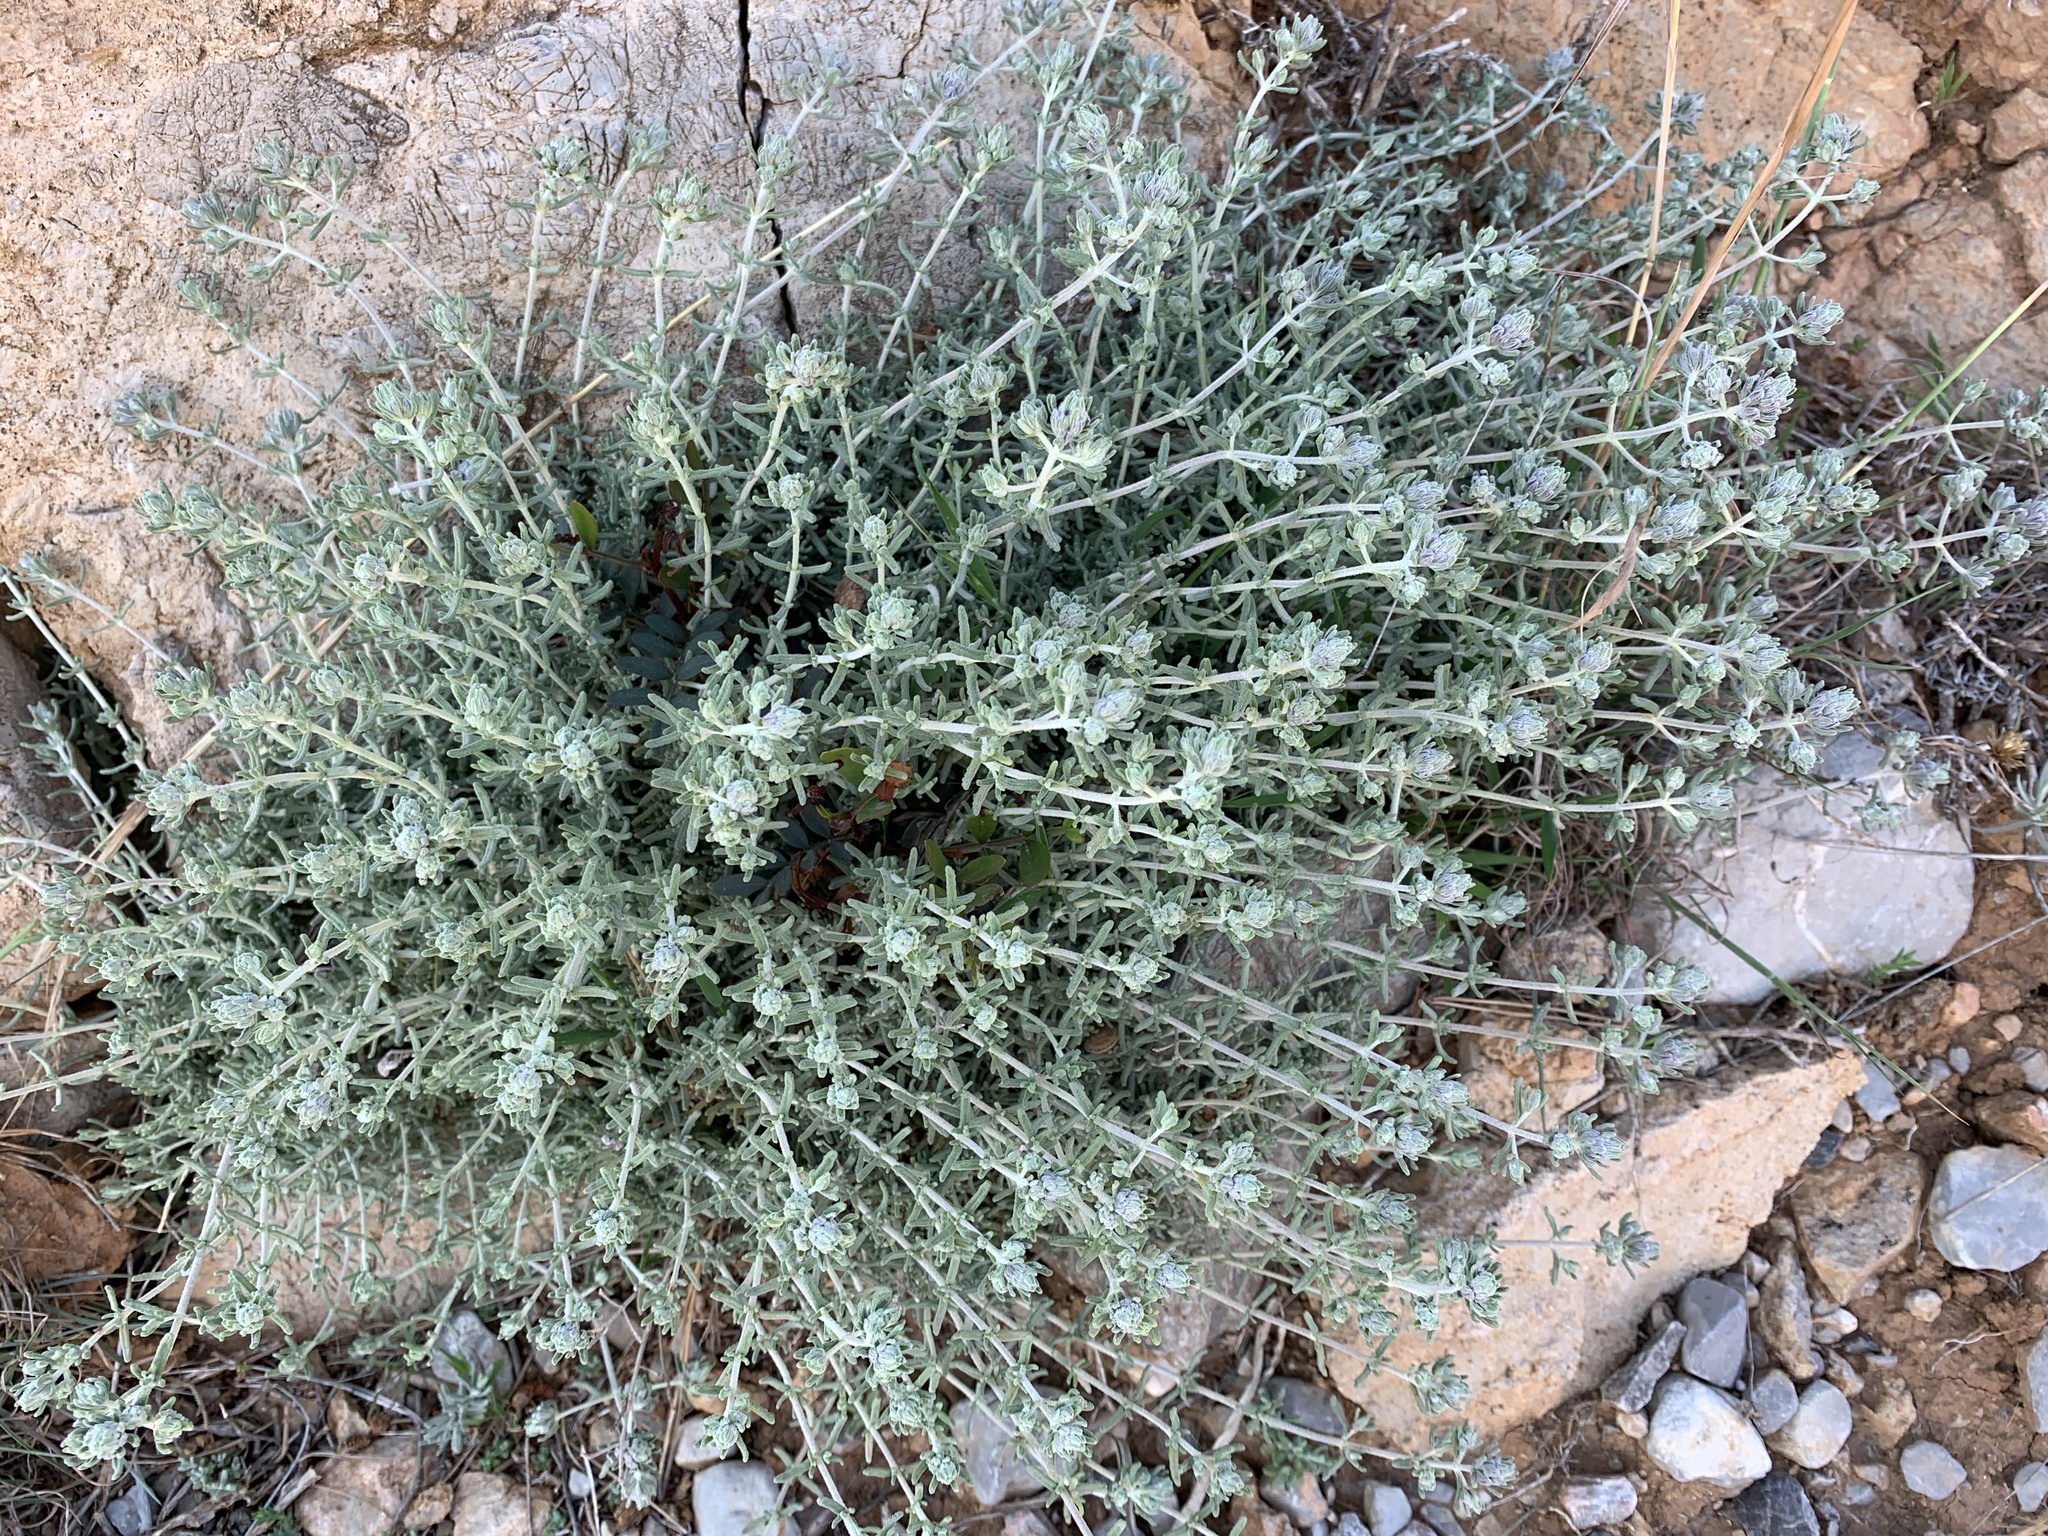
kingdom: Plantae
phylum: Tracheophyta
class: Magnoliopsida
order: Lamiales
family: Lamiaceae
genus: Teucrium
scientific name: Teucrium capitatum
